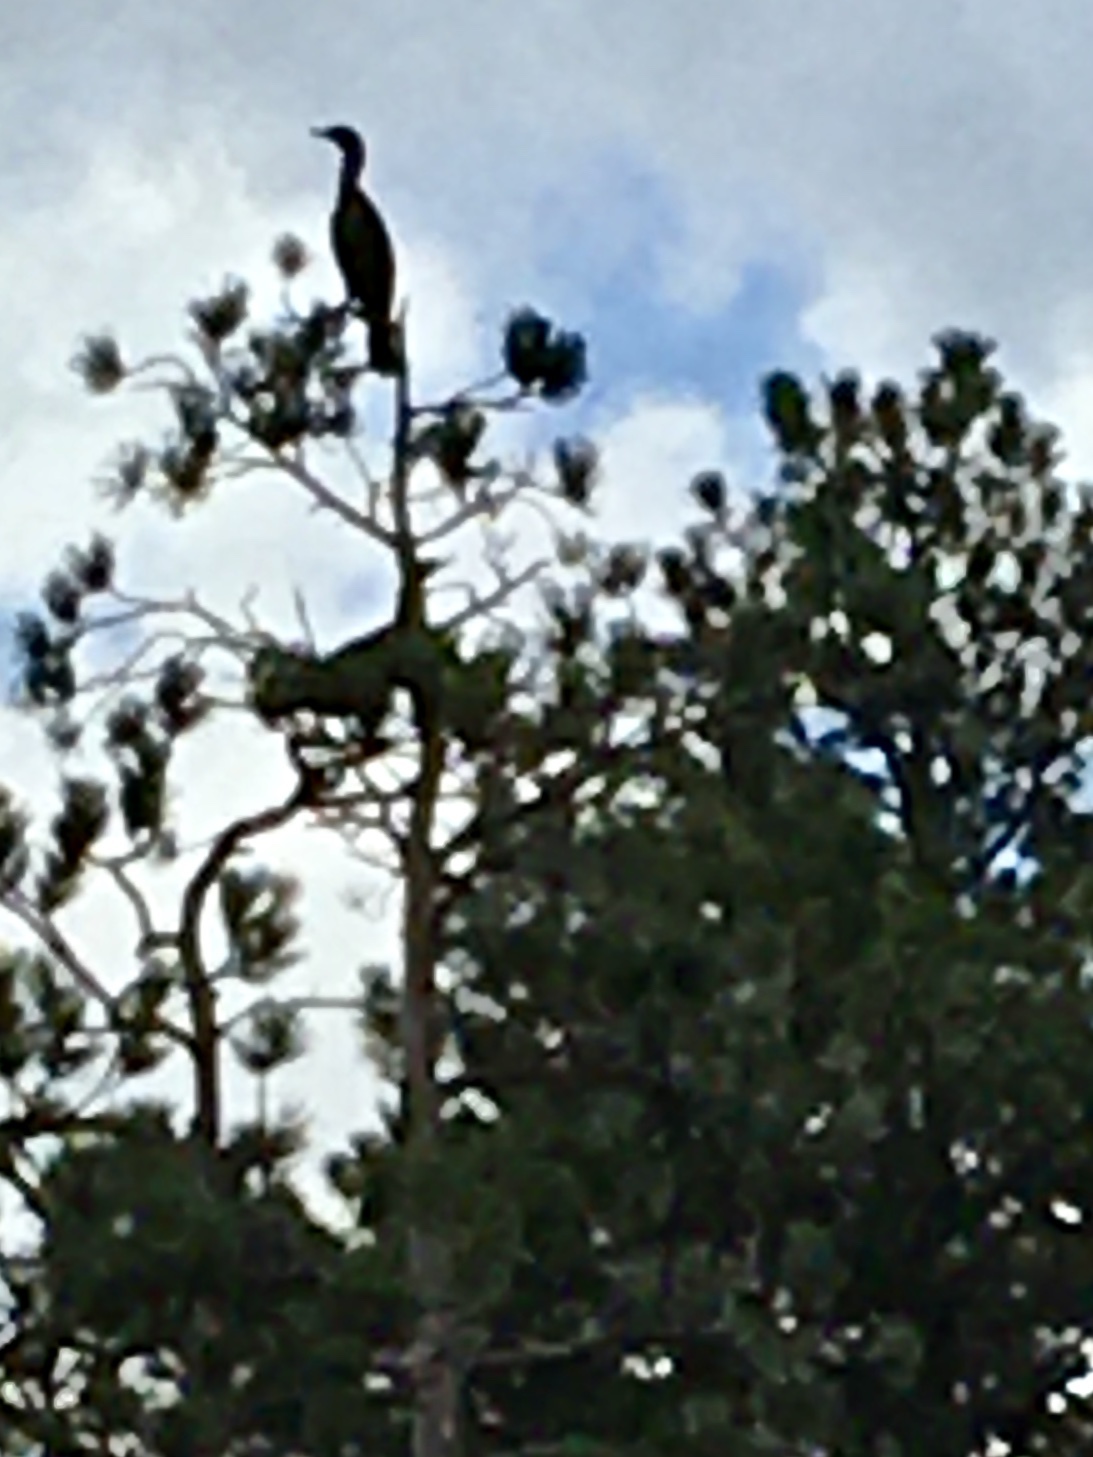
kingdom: Animalia
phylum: Chordata
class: Aves
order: Suliformes
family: Phalacrocoracidae
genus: Phalacrocorax
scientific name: Phalacrocorax auritus
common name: Double-crested cormorant
